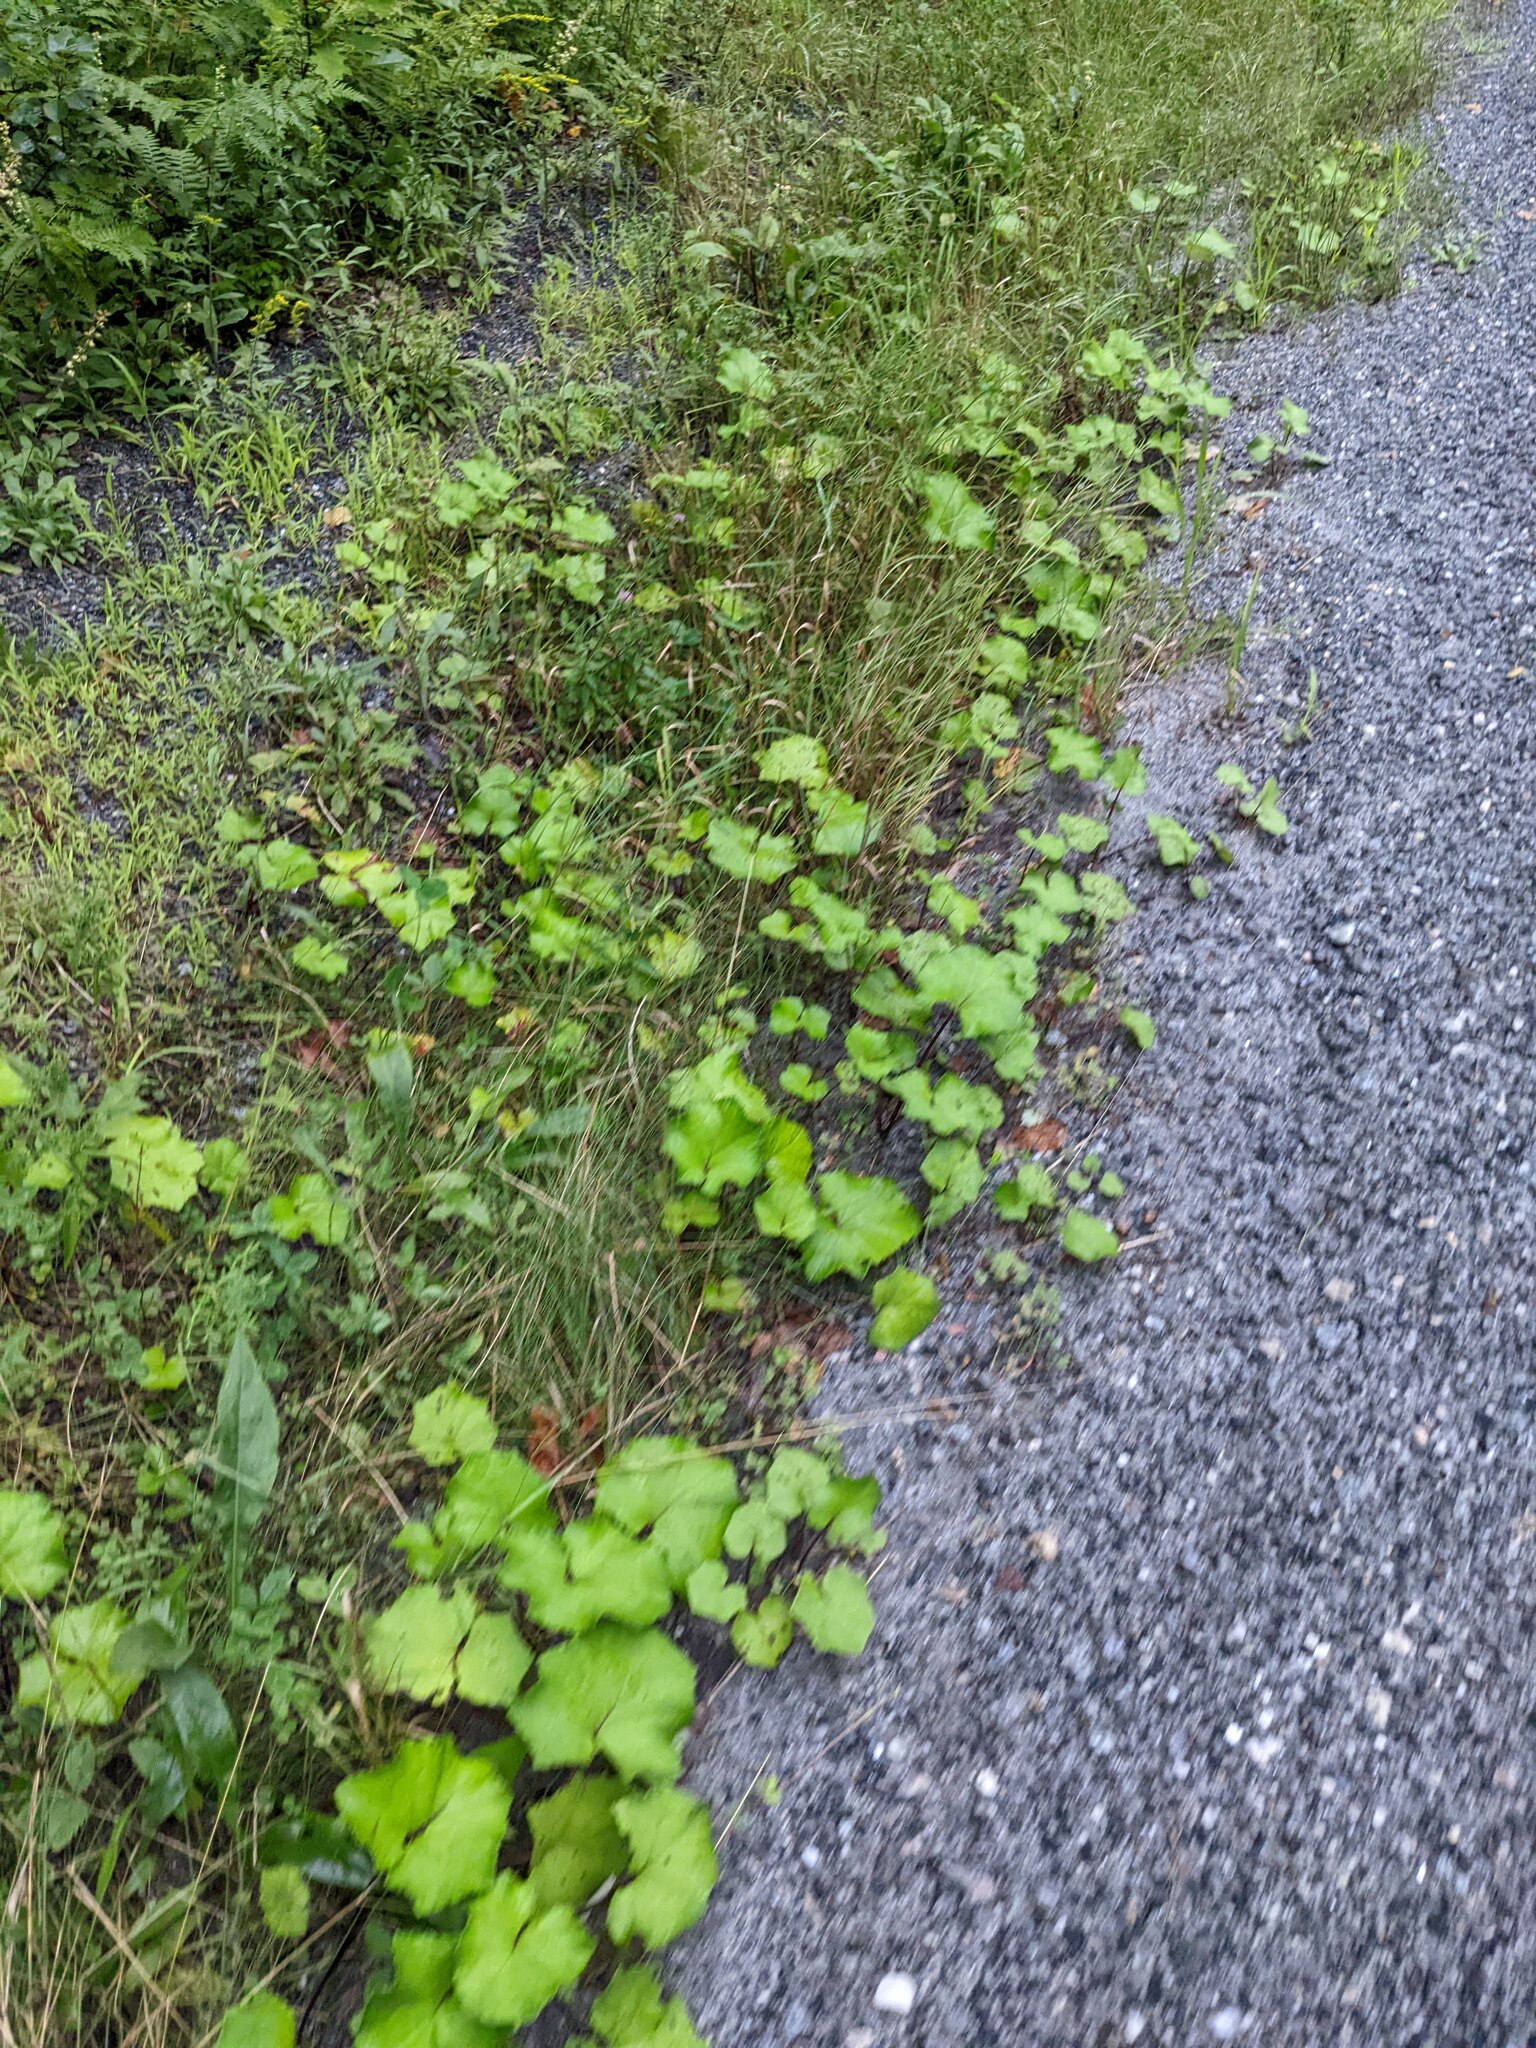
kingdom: Plantae
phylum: Tracheophyta
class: Magnoliopsida
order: Asterales
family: Asteraceae
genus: Tussilago
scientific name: Tussilago farfara
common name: Coltsfoot
